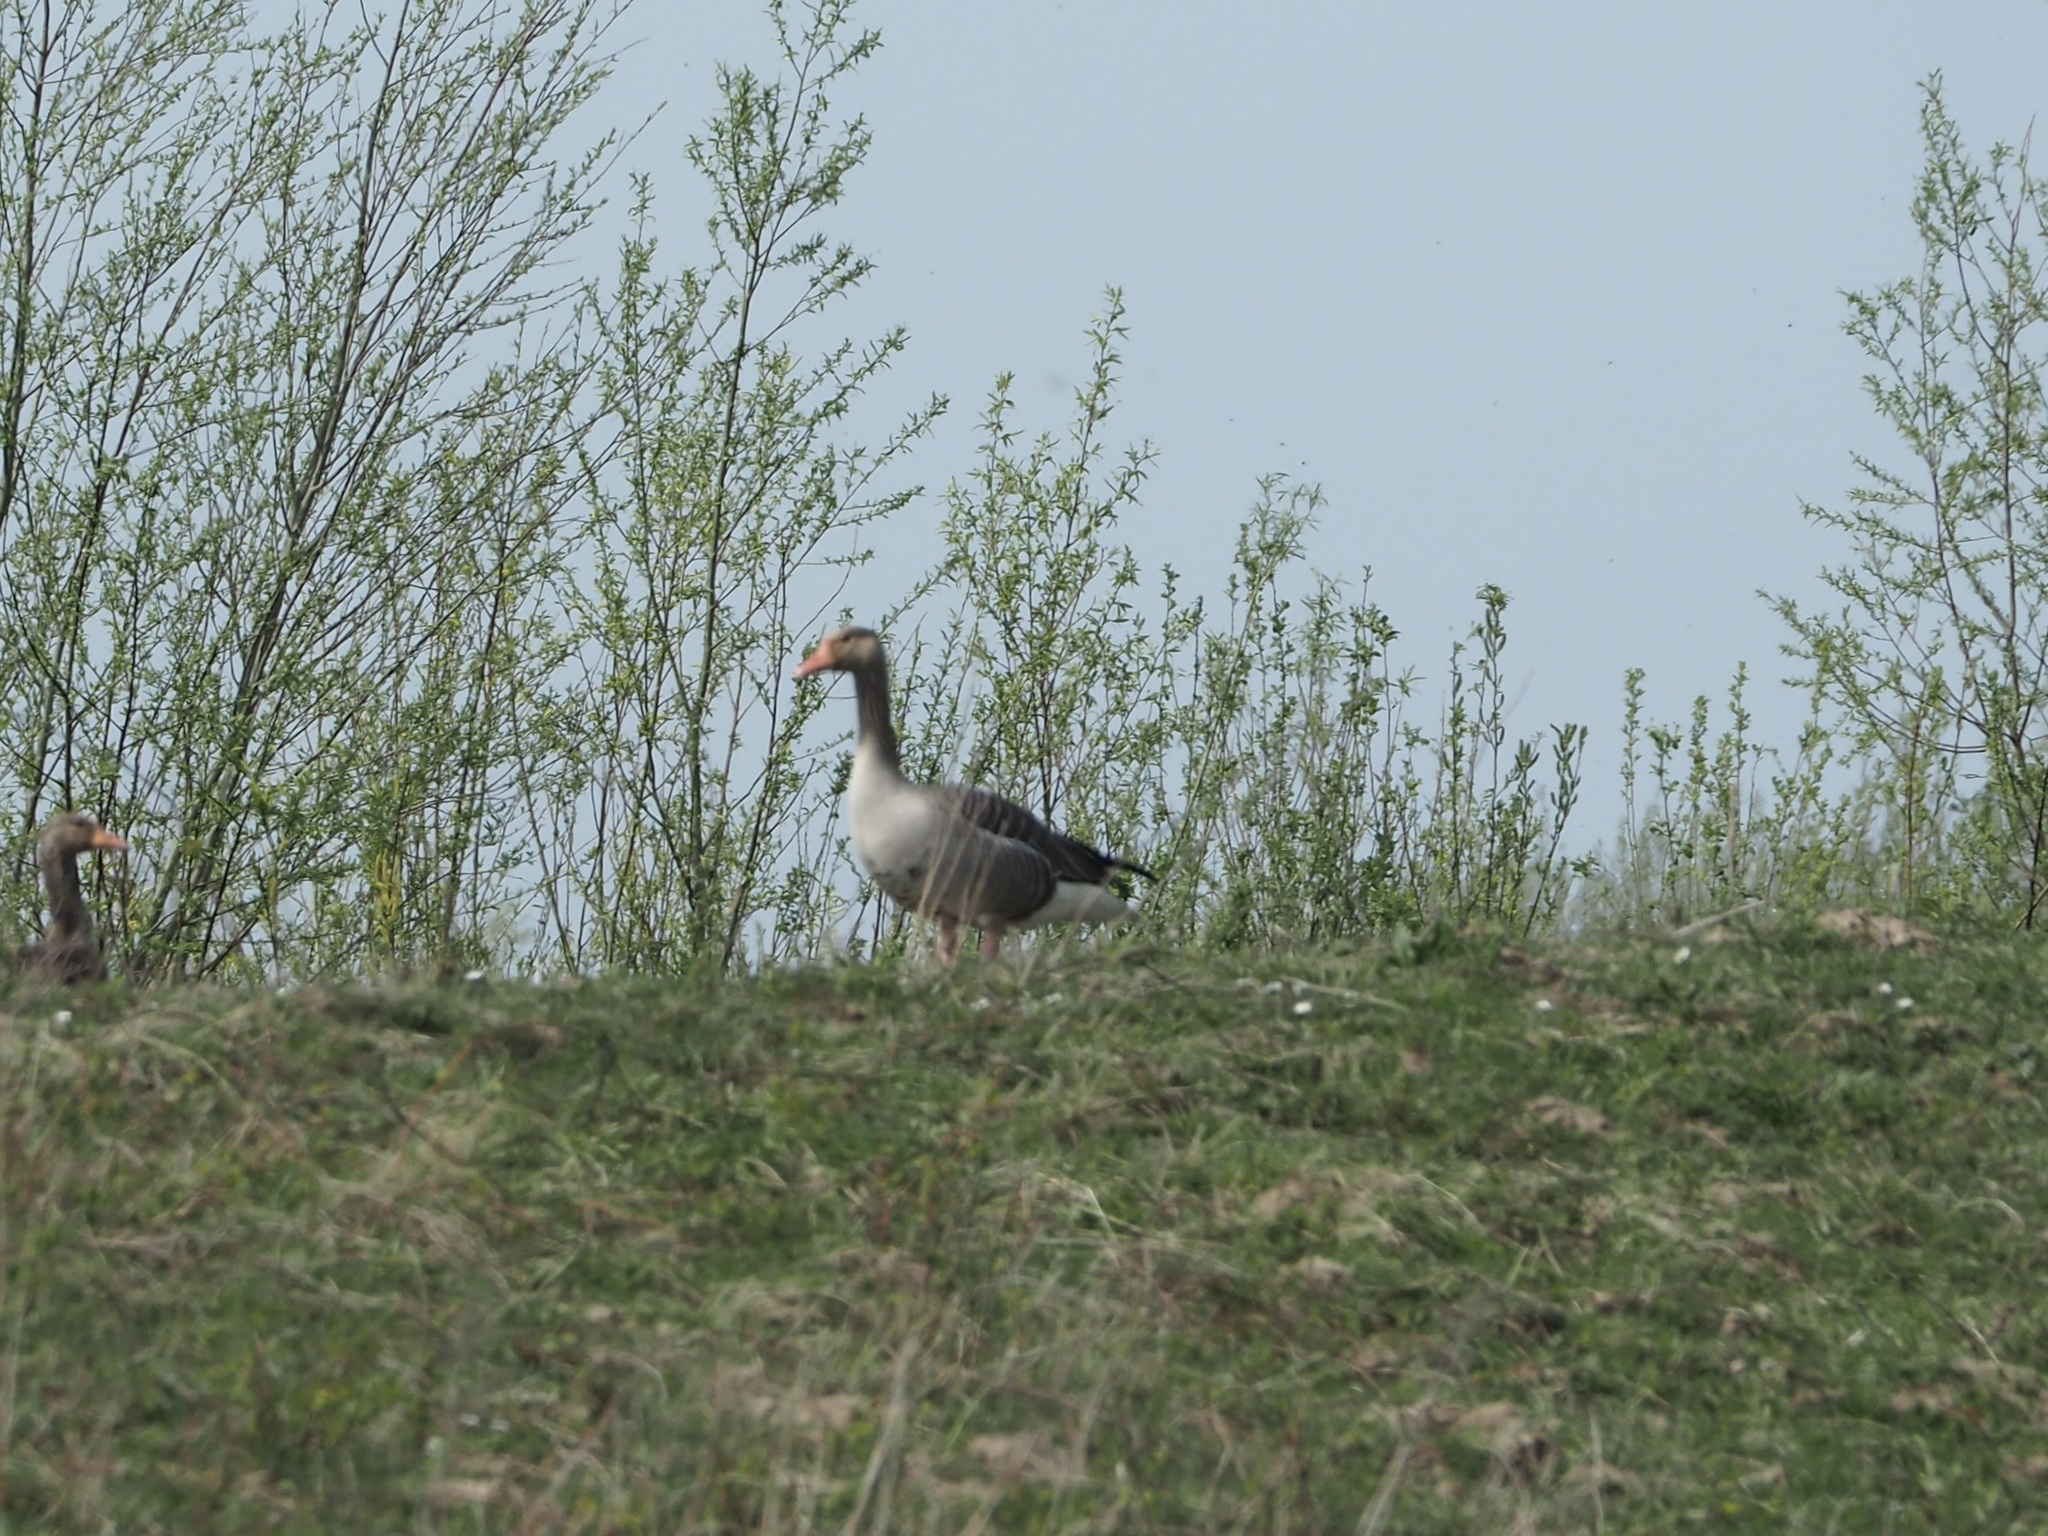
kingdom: Animalia
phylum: Chordata
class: Aves
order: Anseriformes
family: Anatidae
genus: Anser
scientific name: Anser anser
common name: Greylag goose
